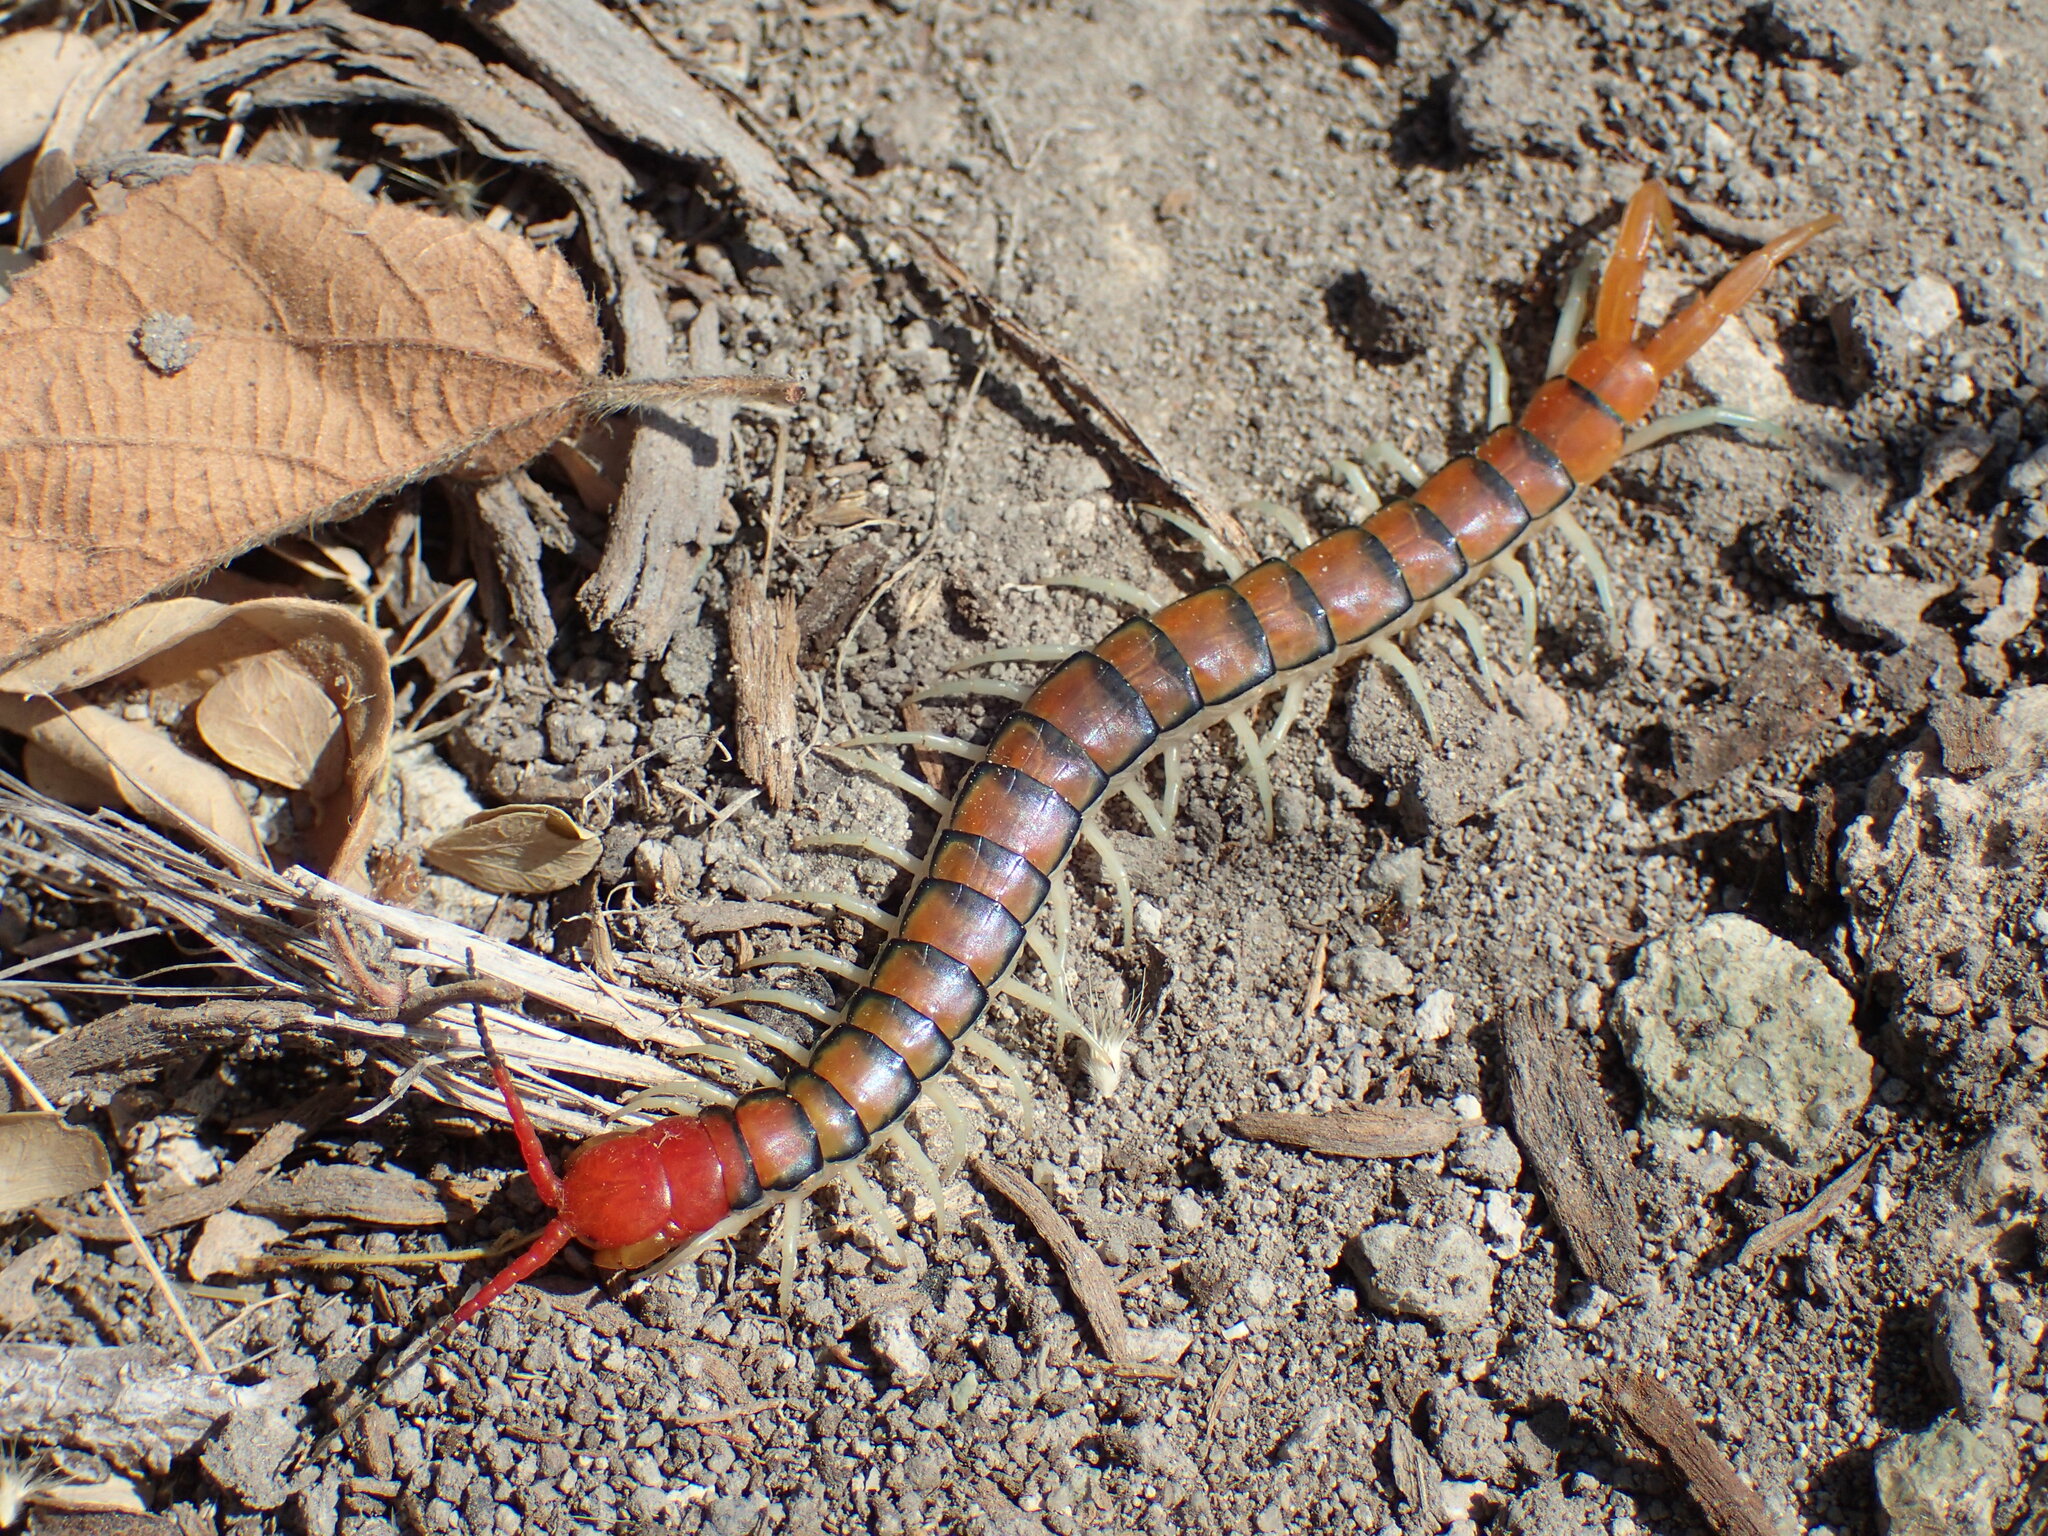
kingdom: Animalia
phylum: Arthropoda
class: Chilopoda
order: Scolopendromorpha
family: Scolopendridae
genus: Scolopendra
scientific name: Scolopendra morsitans
